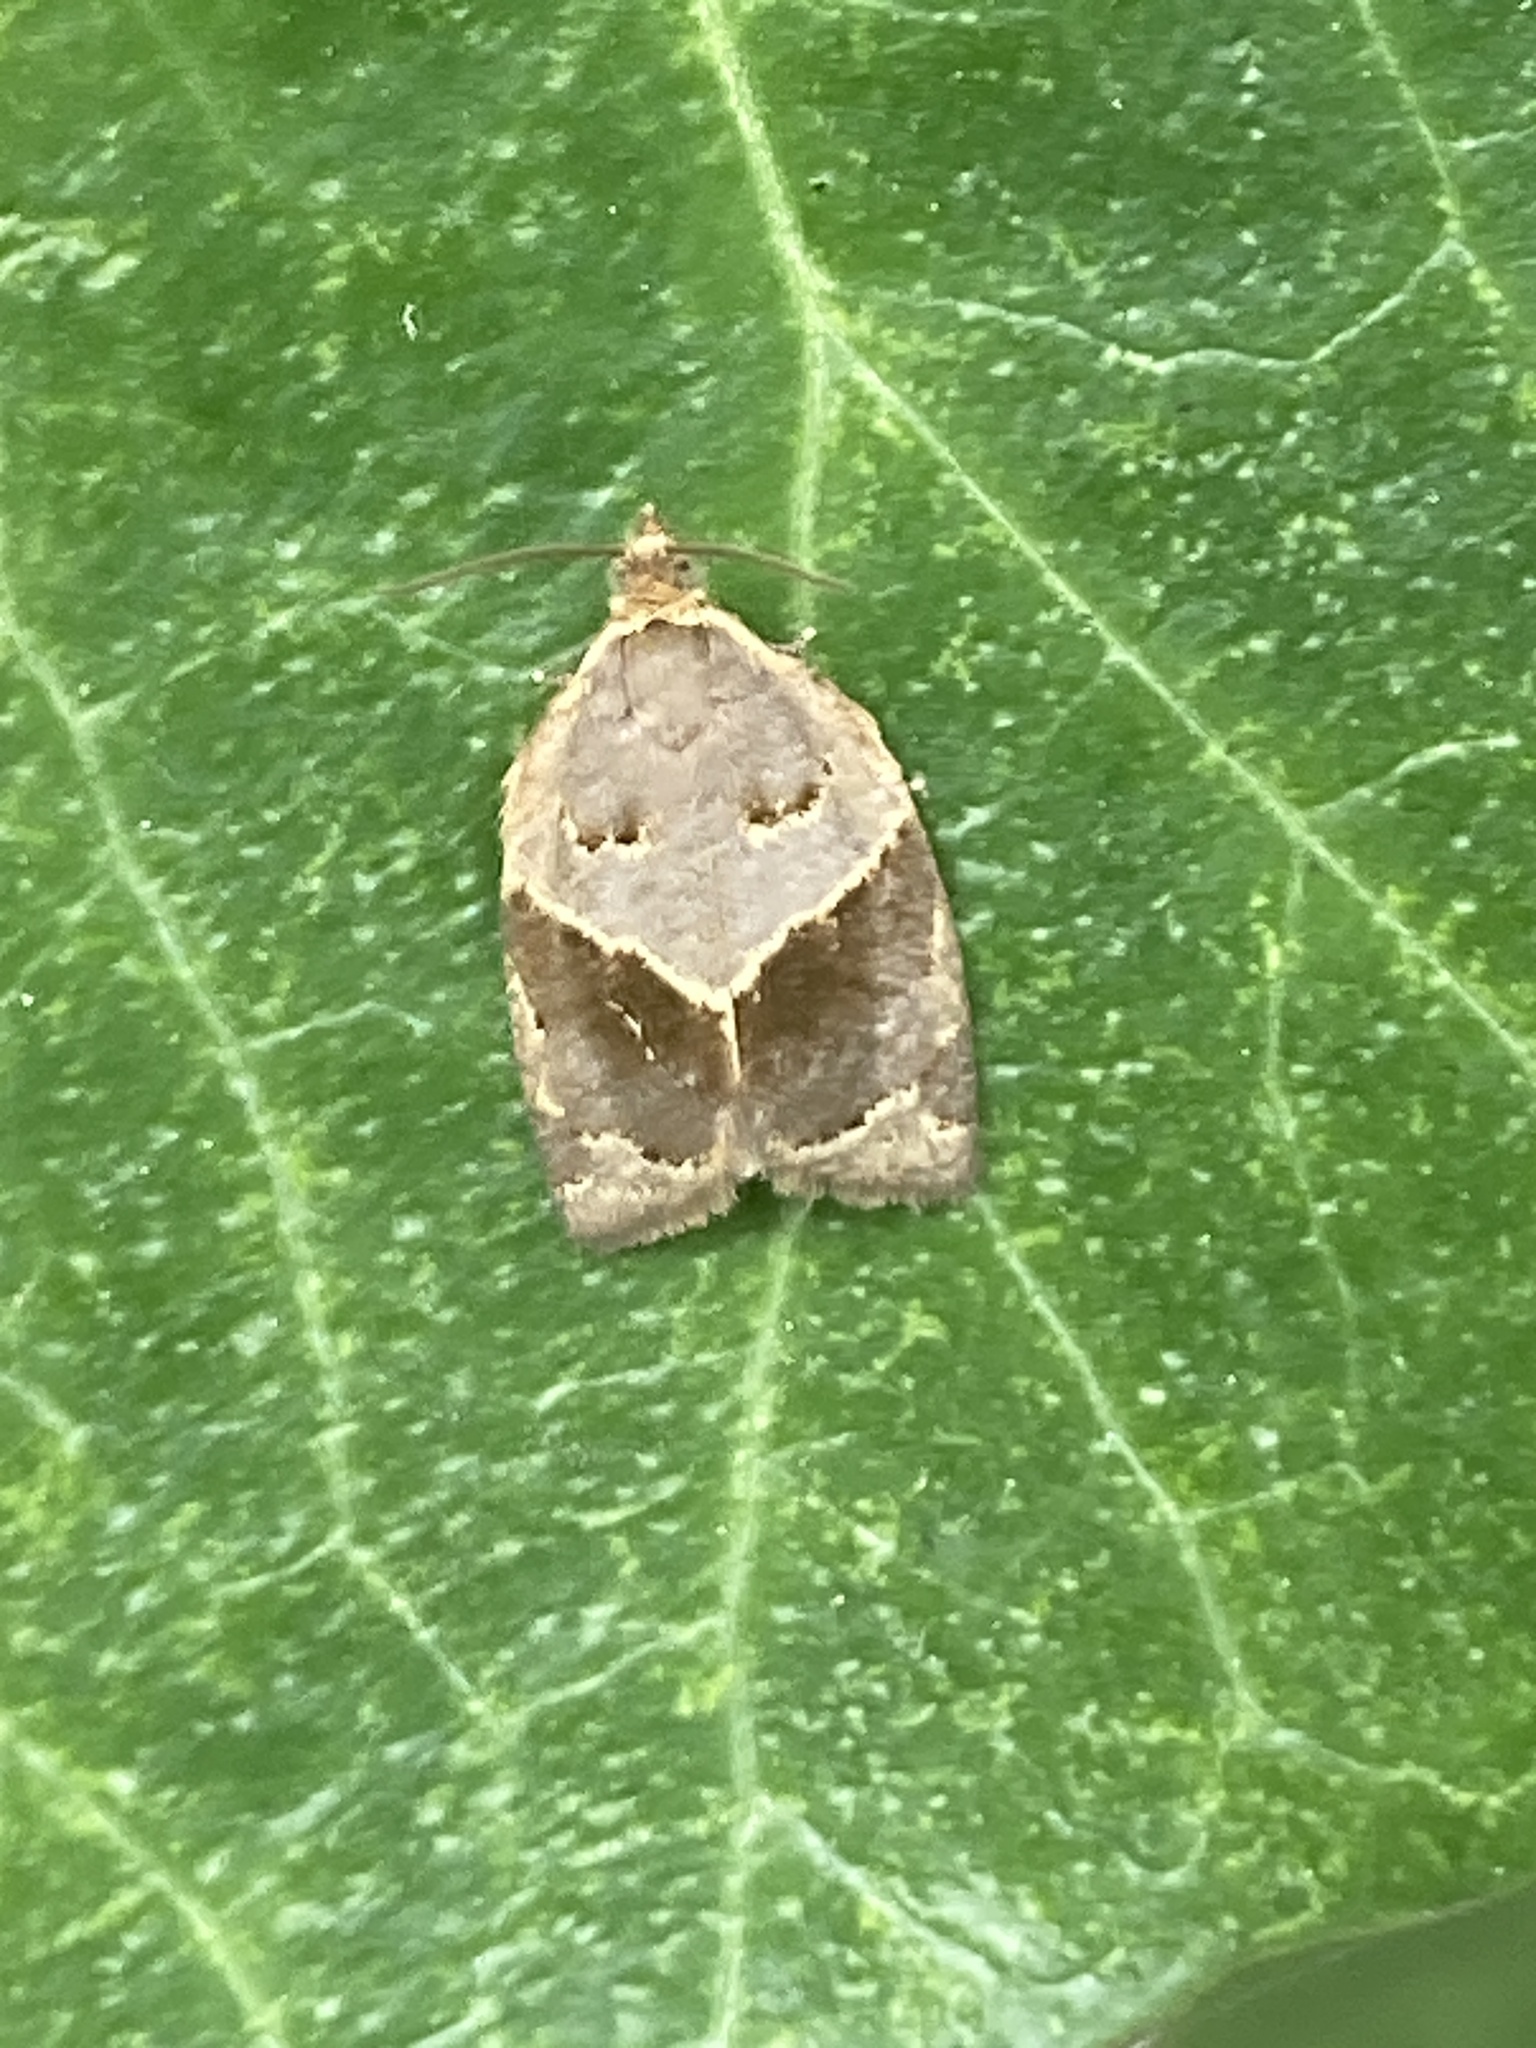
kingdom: Animalia
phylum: Arthropoda
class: Insecta
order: Lepidoptera
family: Tortricidae
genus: Clepsis
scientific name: Clepsis dumicolana
